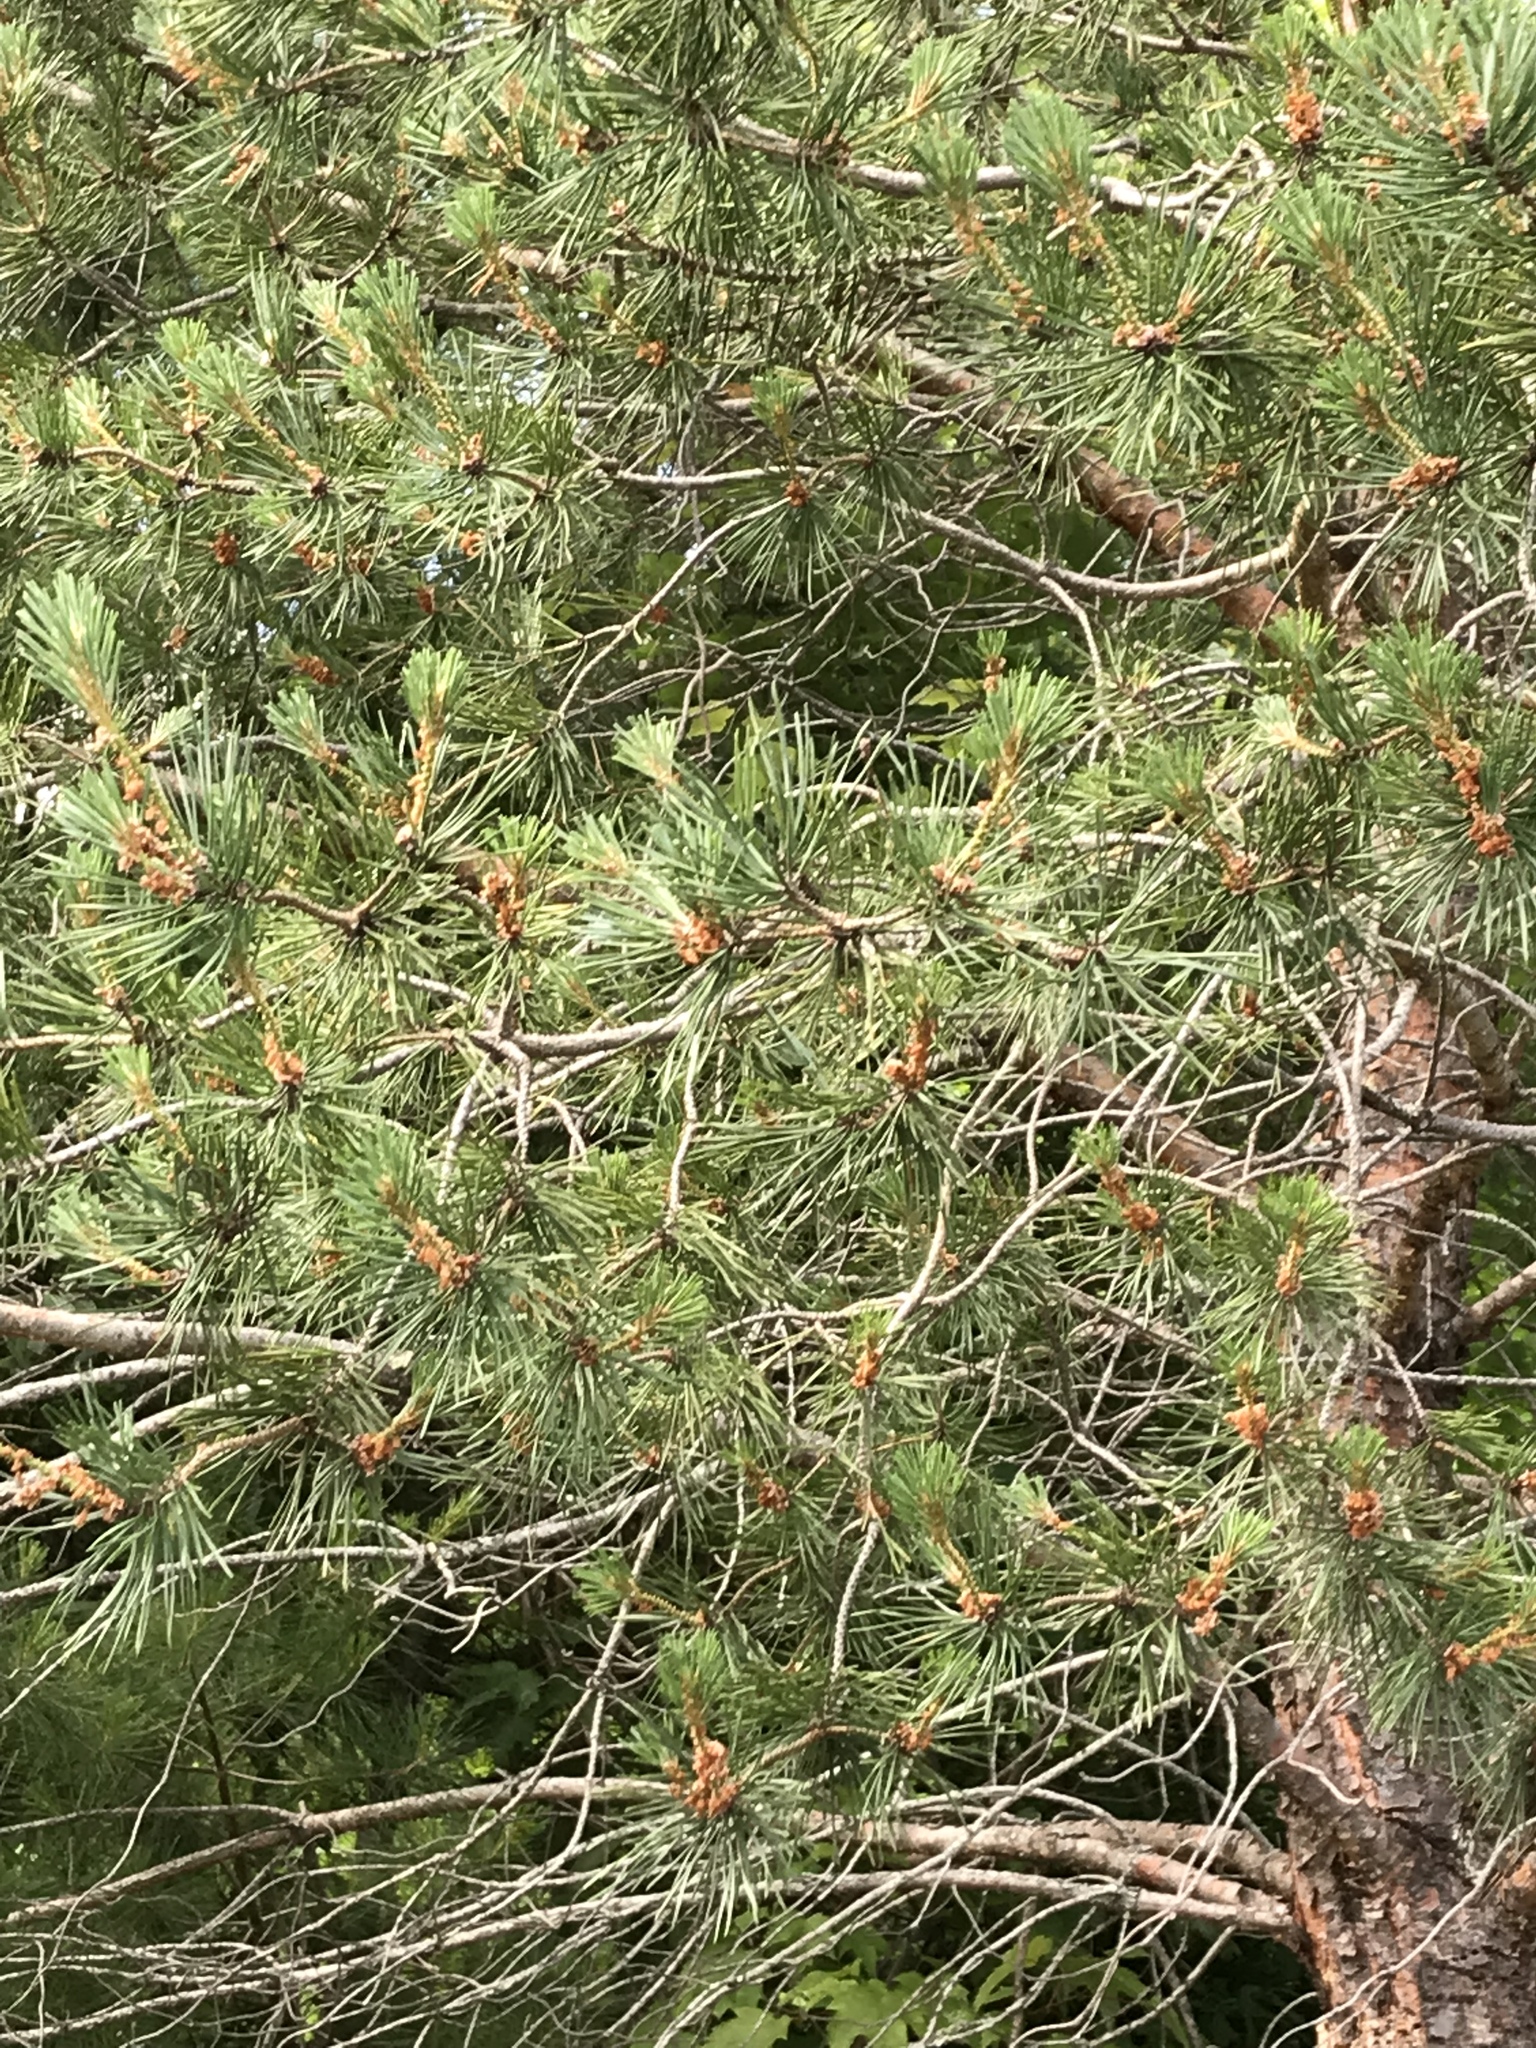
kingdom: Plantae
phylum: Tracheophyta
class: Pinopsida
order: Pinales
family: Pinaceae
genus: Pinus
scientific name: Pinus sylvestris
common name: Scots pine
